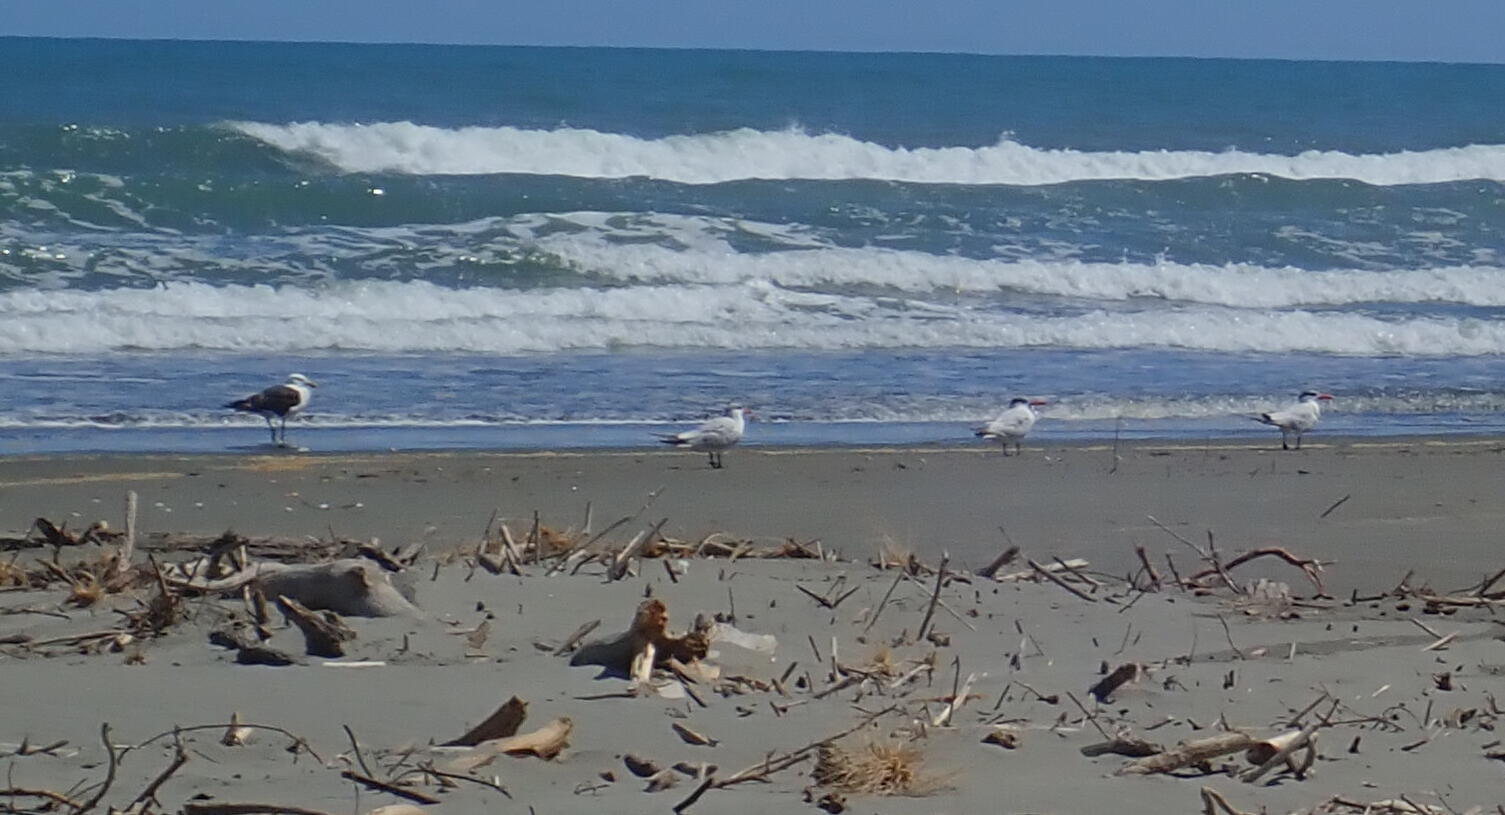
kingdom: Animalia
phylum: Chordata
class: Aves
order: Charadriiformes
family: Laridae
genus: Hydroprogne
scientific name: Hydroprogne caspia
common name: Caspian tern
